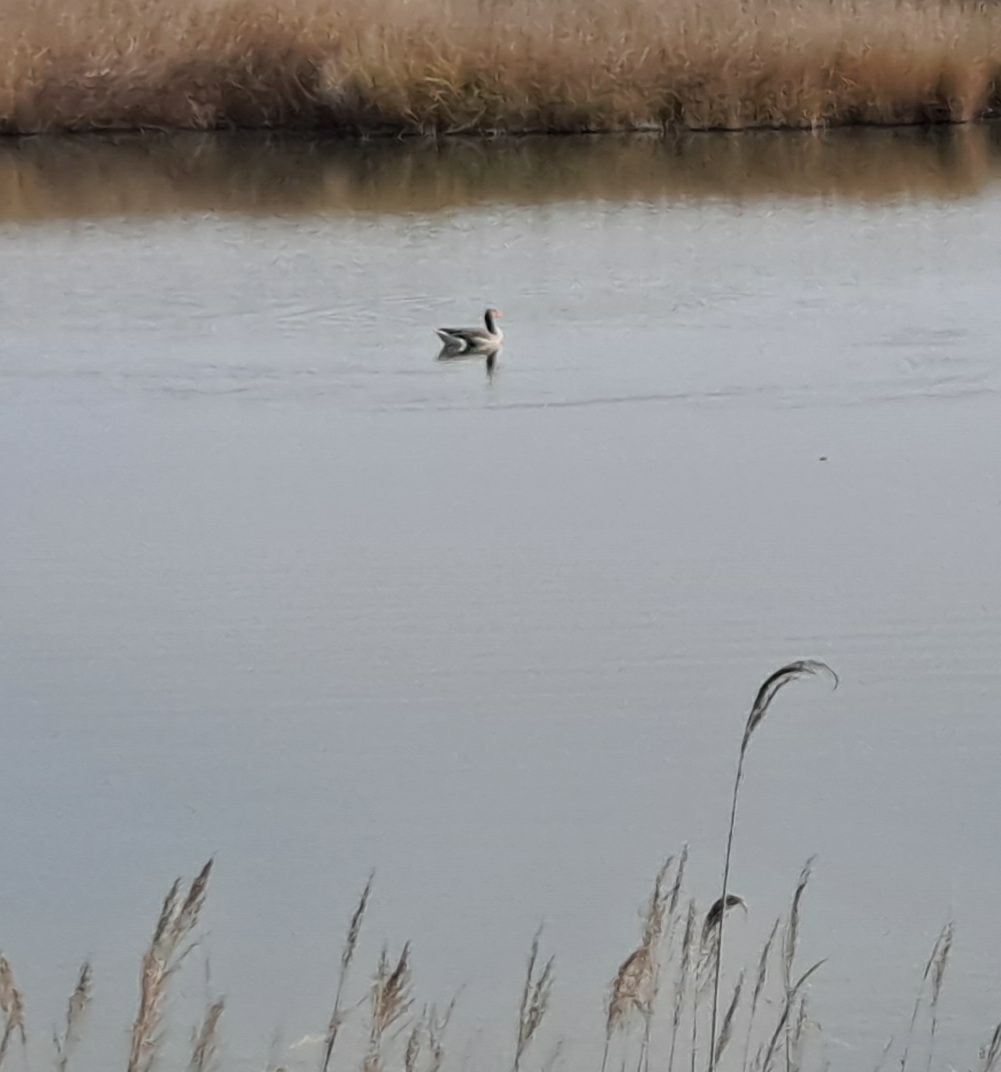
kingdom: Animalia
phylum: Chordata
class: Aves
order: Anseriformes
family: Anatidae
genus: Anser
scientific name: Anser anser
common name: Greylag goose
